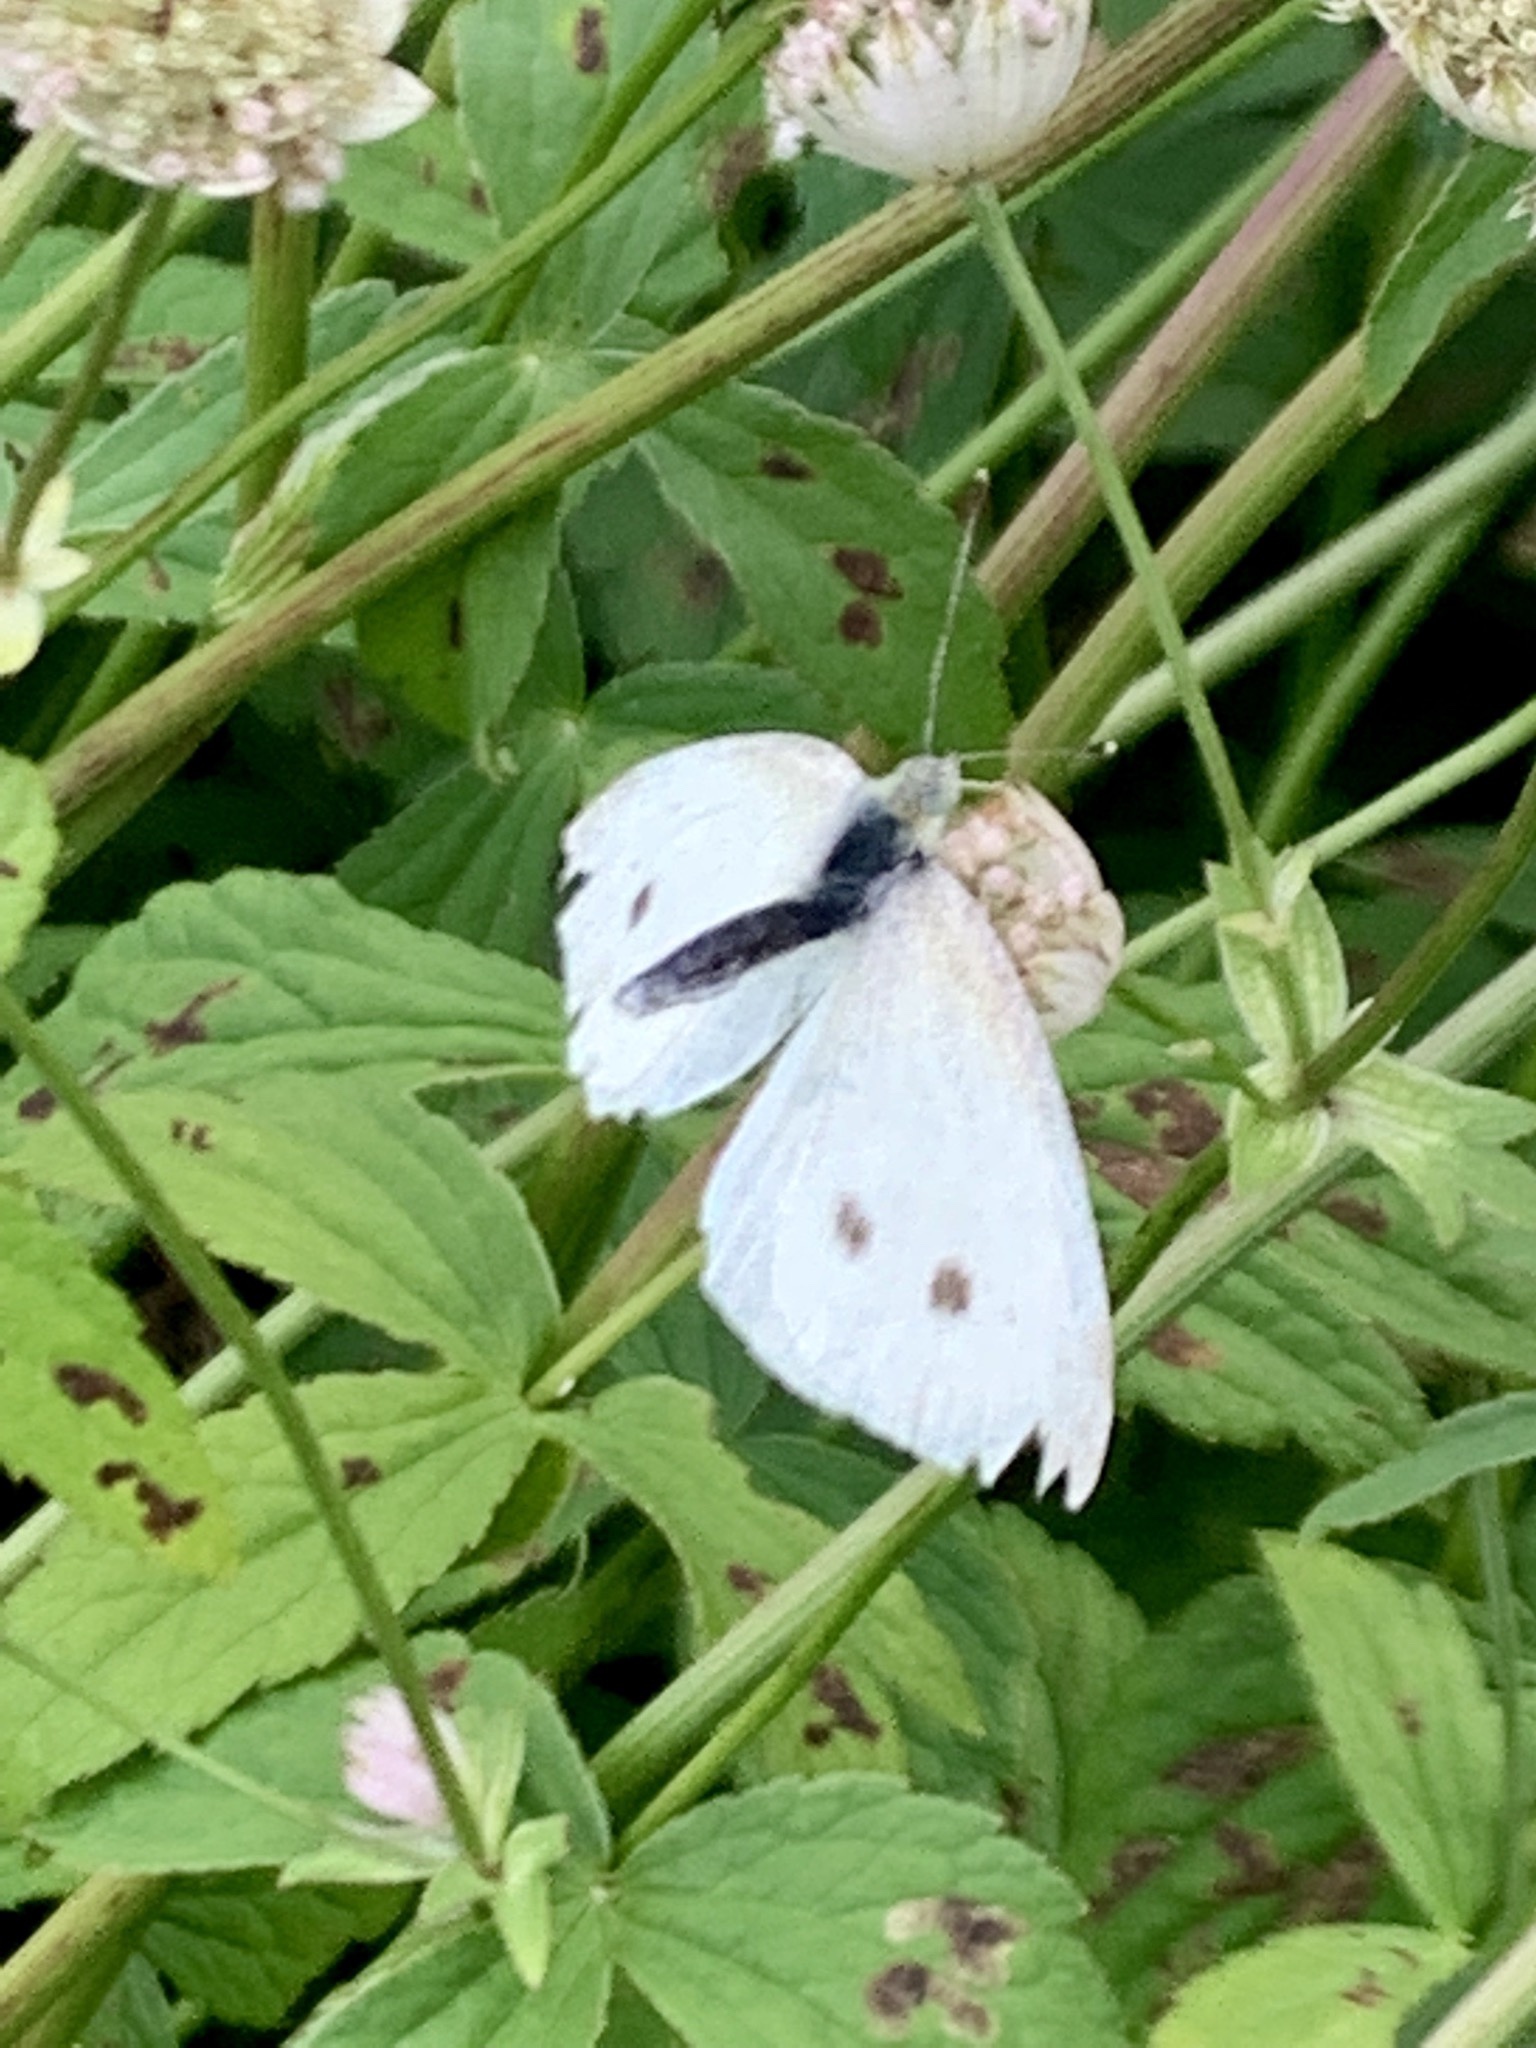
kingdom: Animalia
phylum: Arthropoda
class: Insecta
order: Lepidoptera
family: Pieridae
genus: Pieris
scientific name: Pieris rapae
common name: Small white
